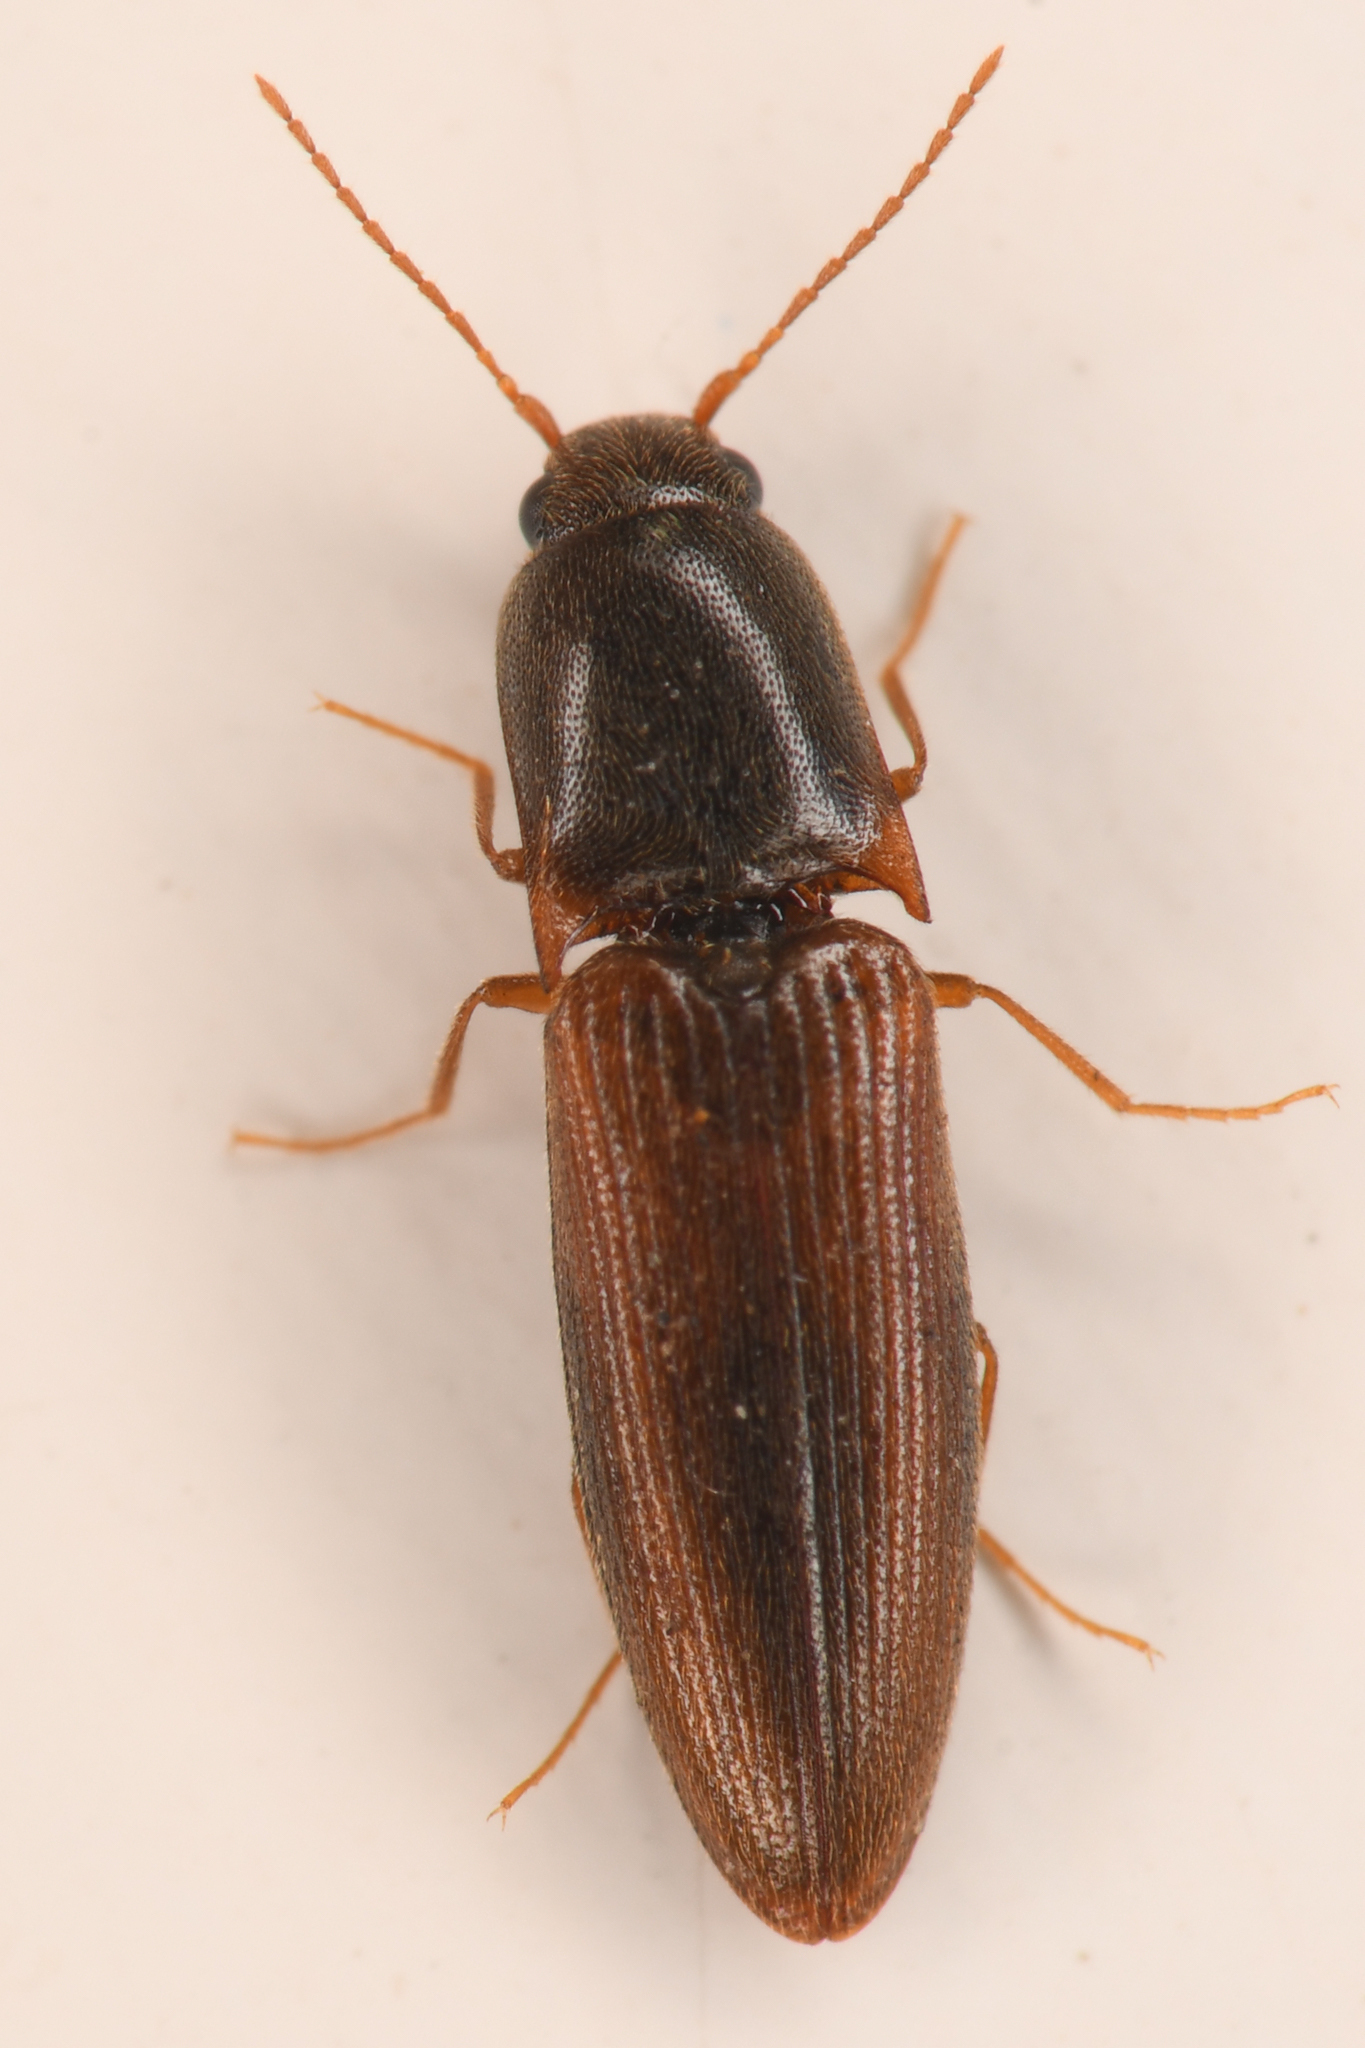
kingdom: Animalia
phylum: Arthropoda
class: Insecta
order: Coleoptera
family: Elateridae
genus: Idolus
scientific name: Idolus debilis
